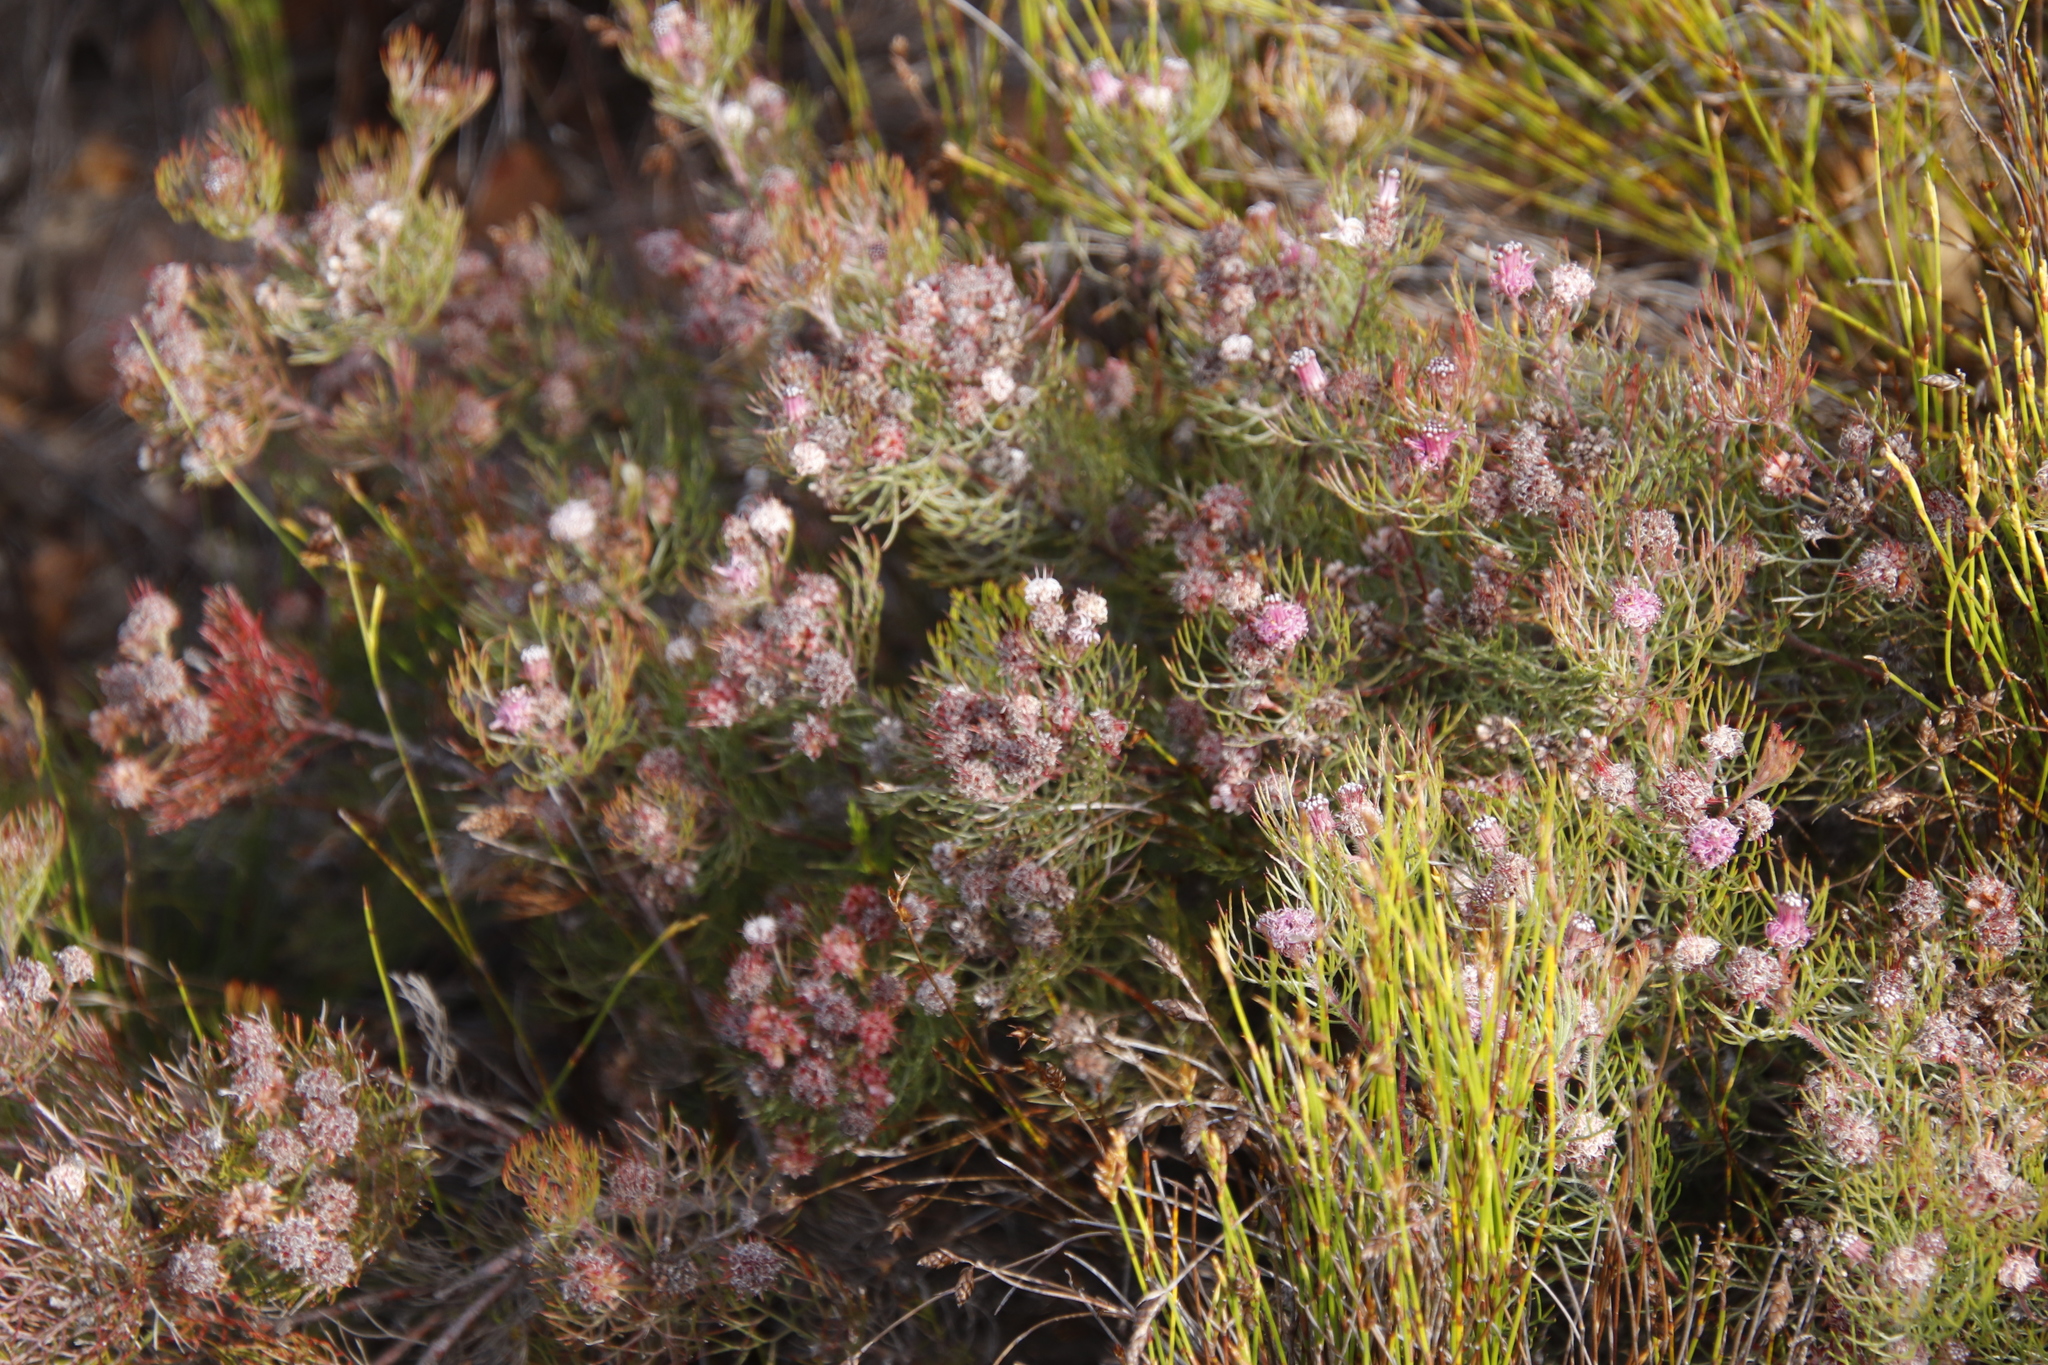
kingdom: Plantae
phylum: Tracheophyta
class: Magnoliopsida
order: Proteales
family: Proteaceae
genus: Serruria
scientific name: Serruria fasciflora
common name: Common pin spiderhead
